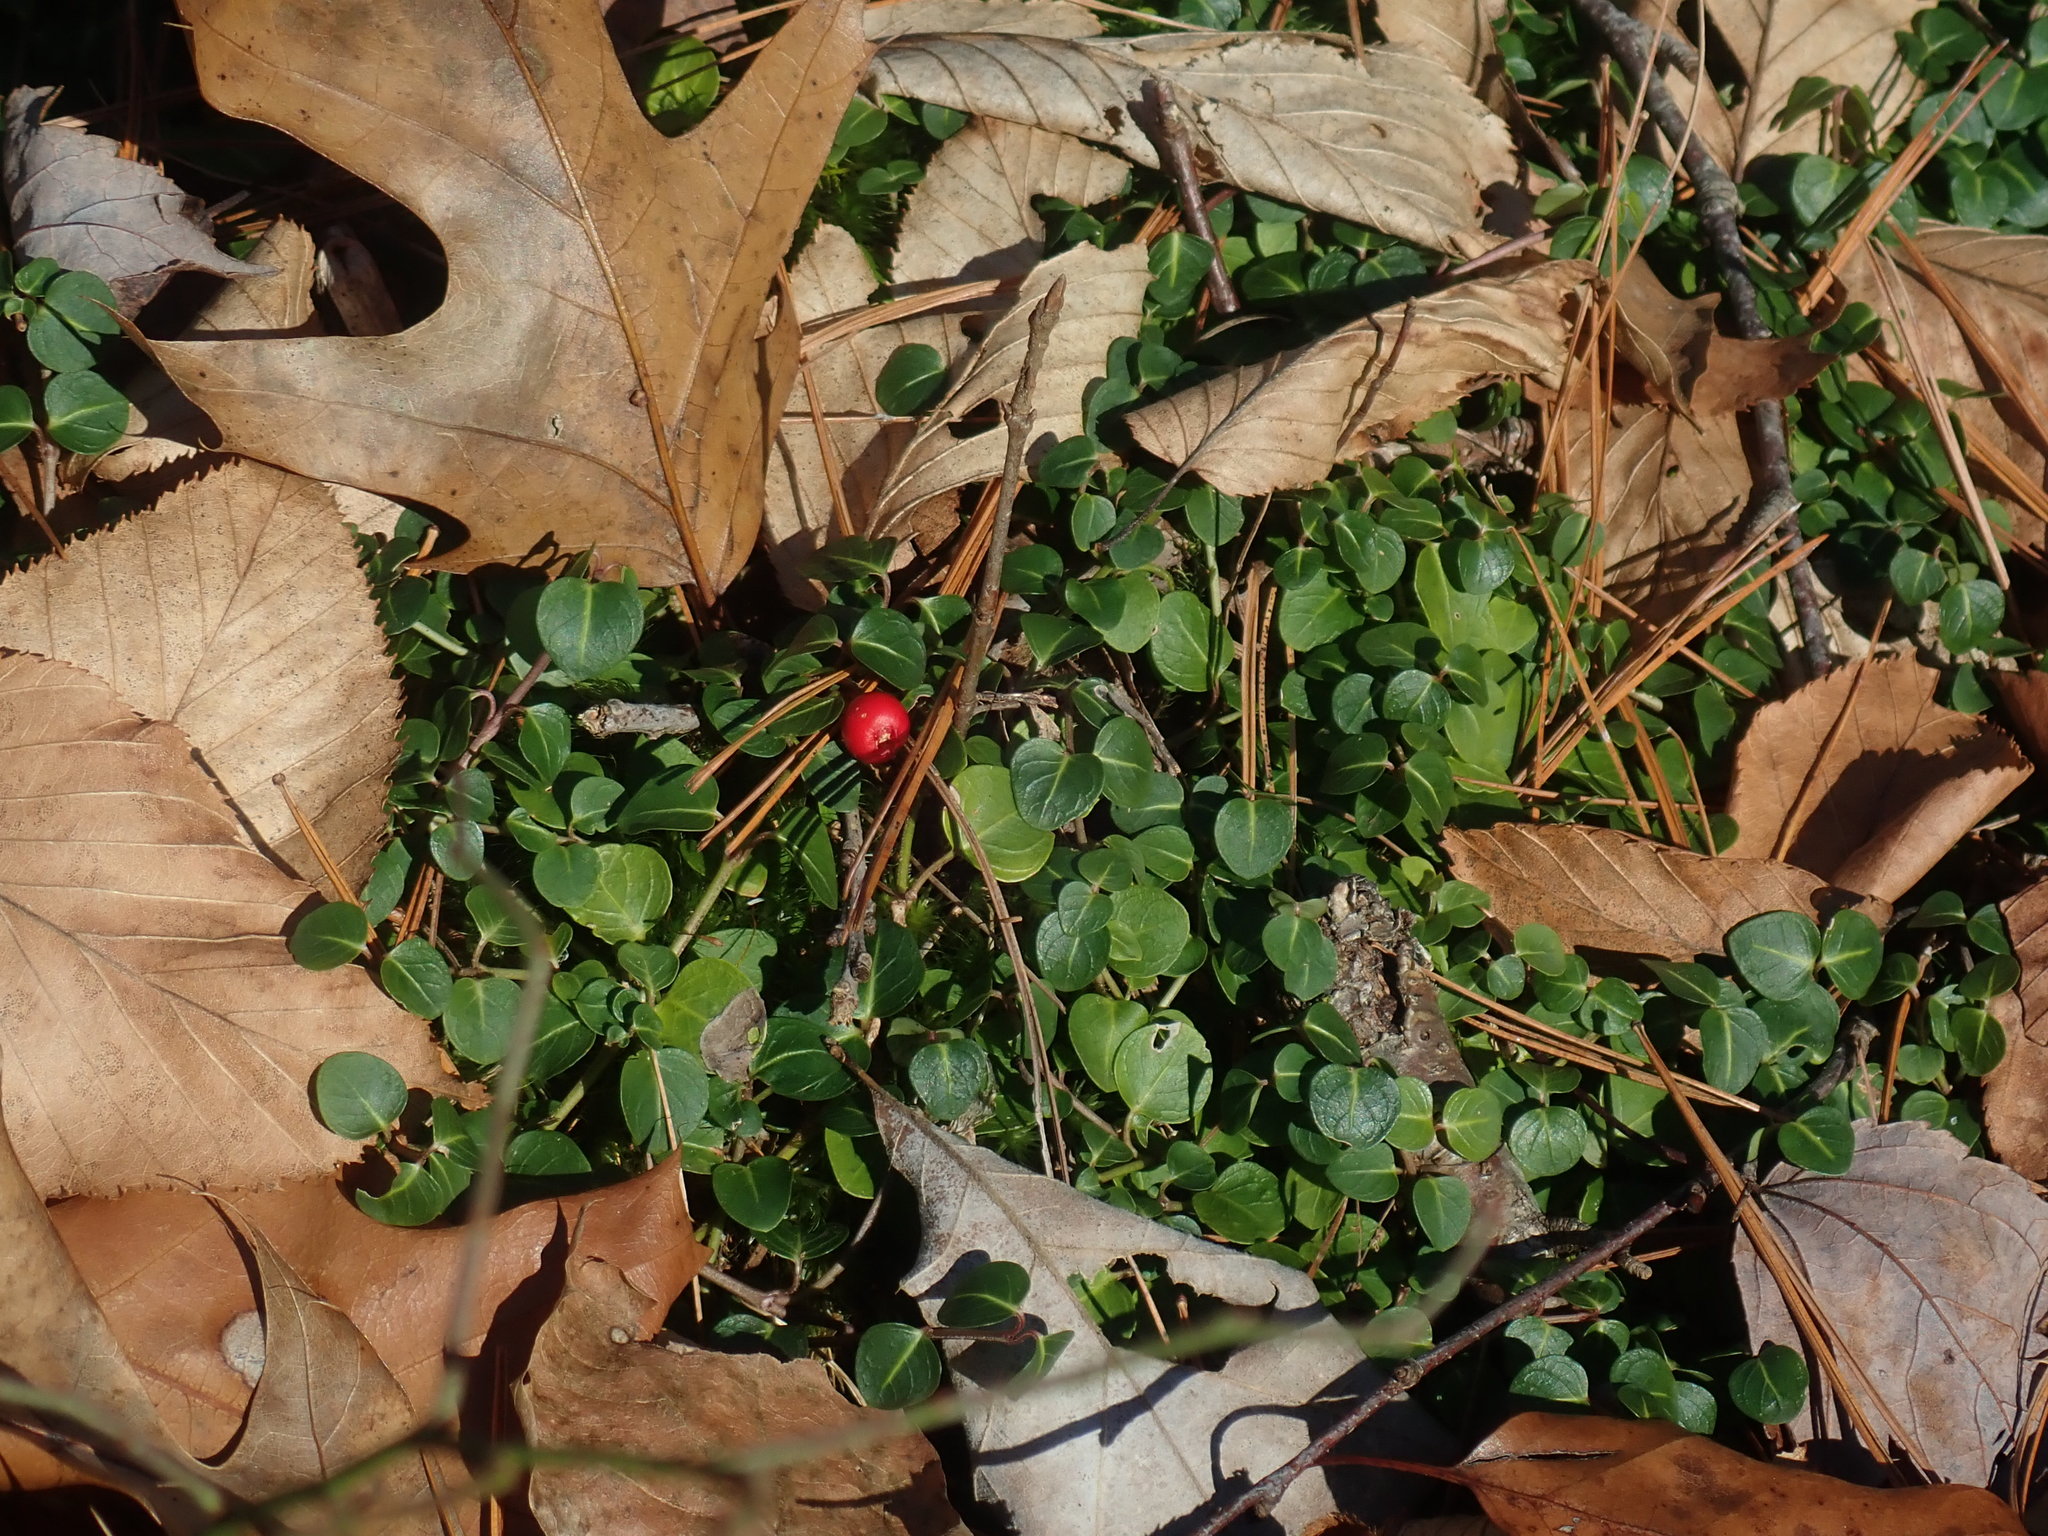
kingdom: Plantae
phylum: Tracheophyta
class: Magnoliopsida
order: Gentianales
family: Rubiaceae
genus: Mitchella
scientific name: Mitchella repens
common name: Partridge-berry
